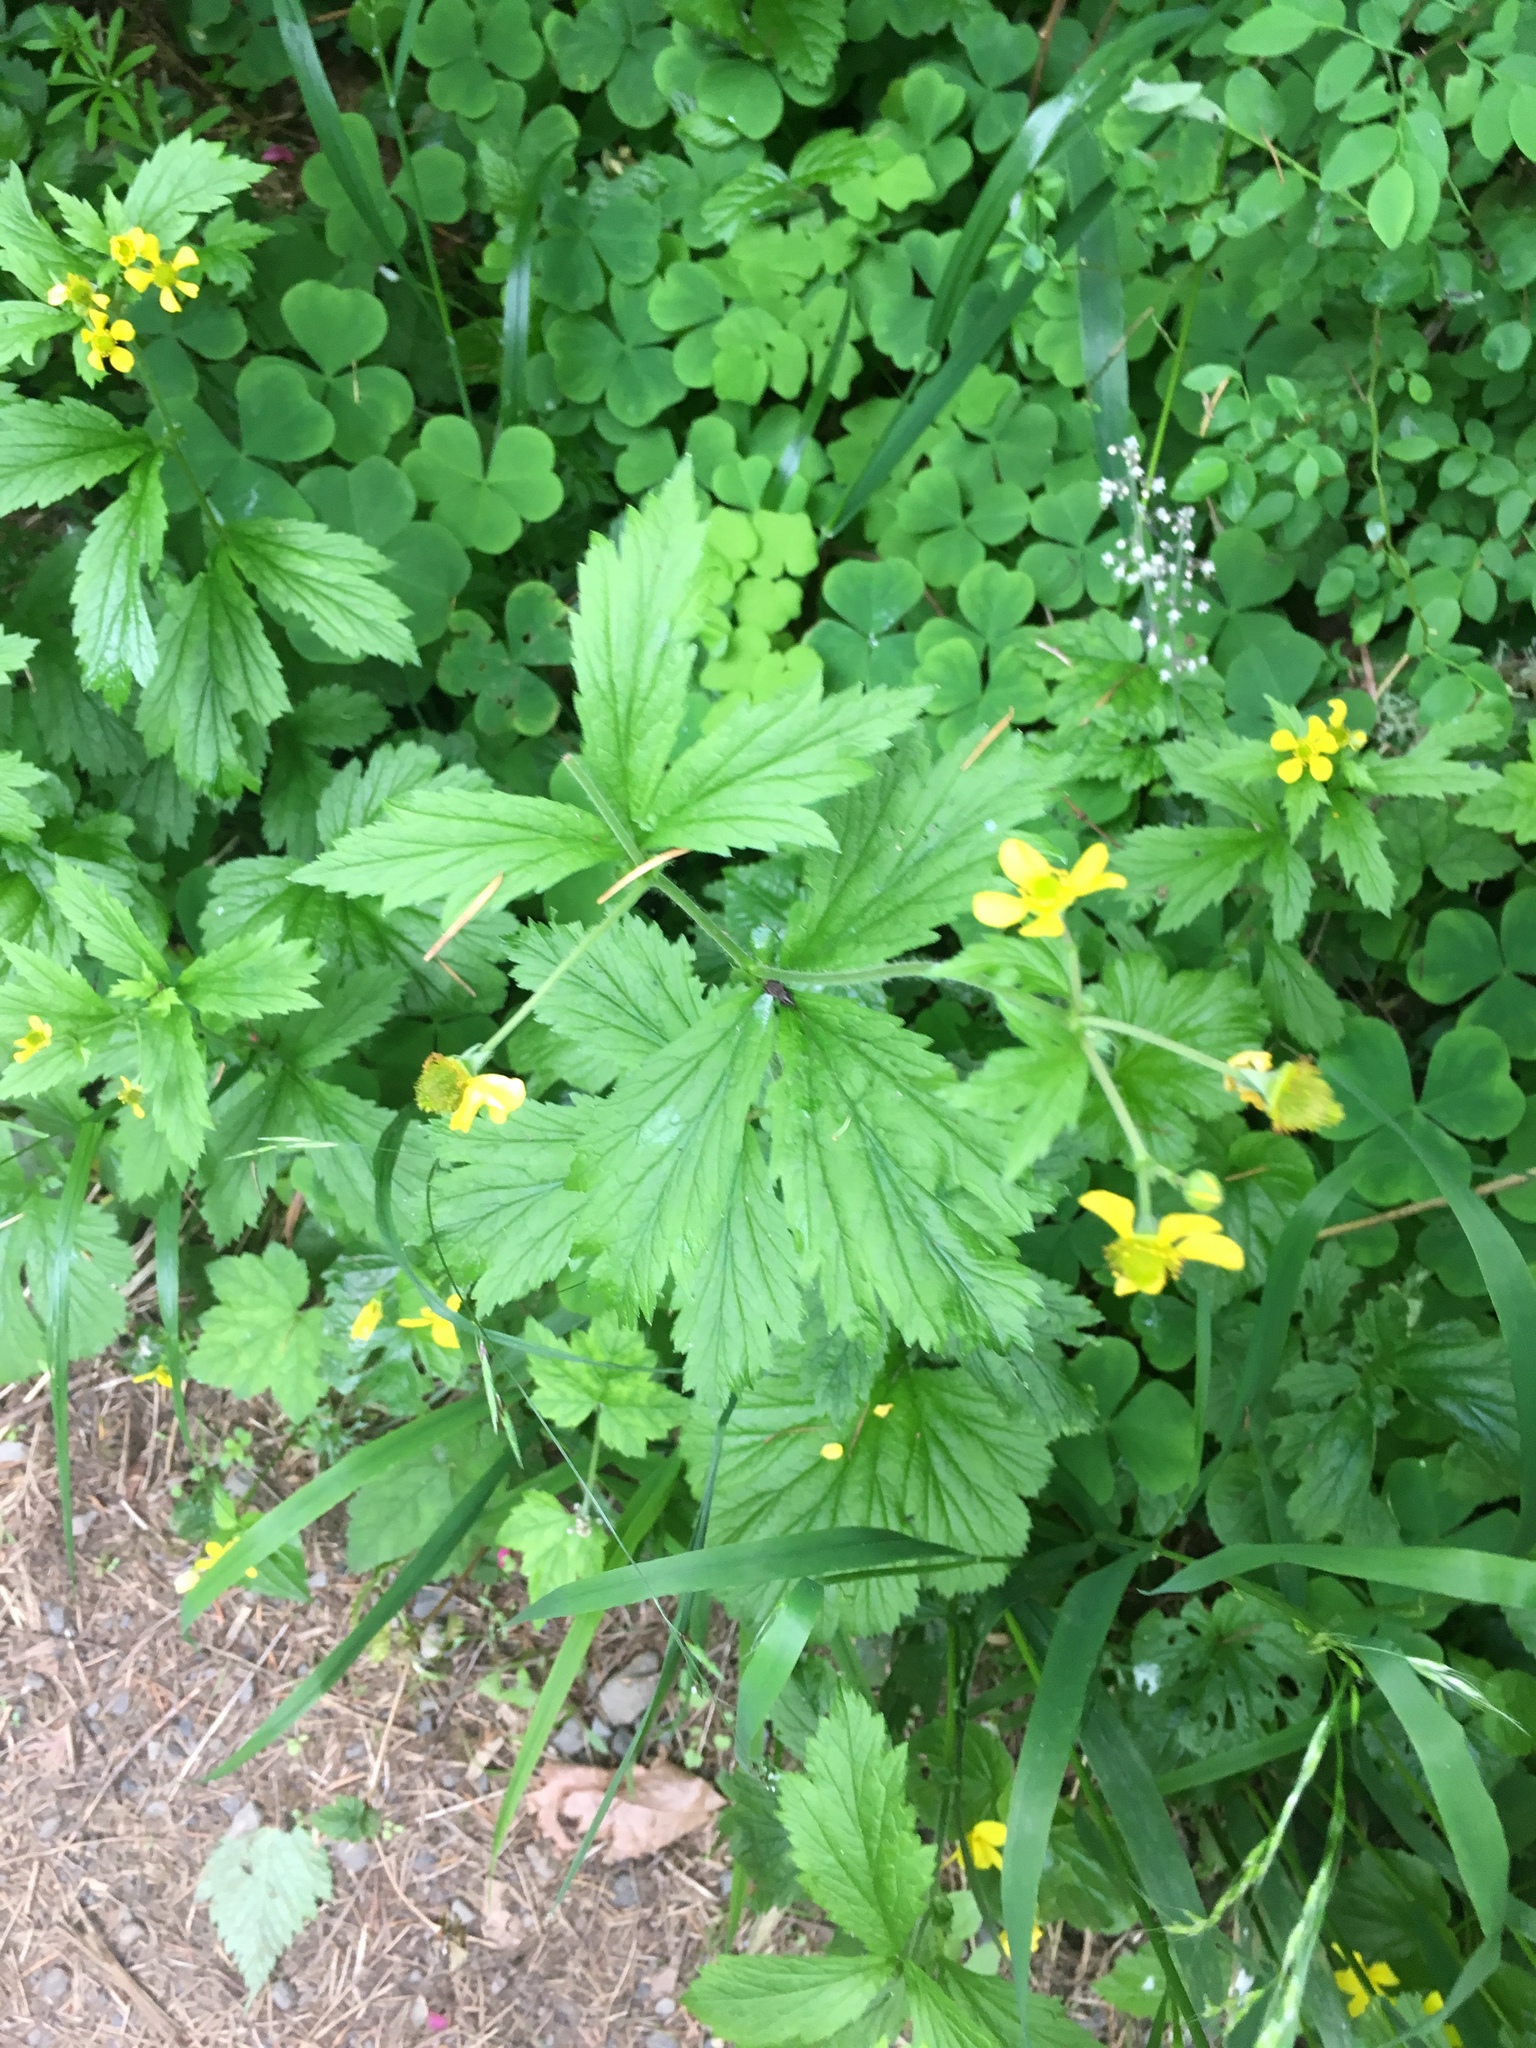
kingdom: Plantae
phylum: Tracheophyta
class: Magnoliopsida
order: Rosales
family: Rosaceae
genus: Geum
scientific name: Geum macrophyllum
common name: Large-leaved avens
